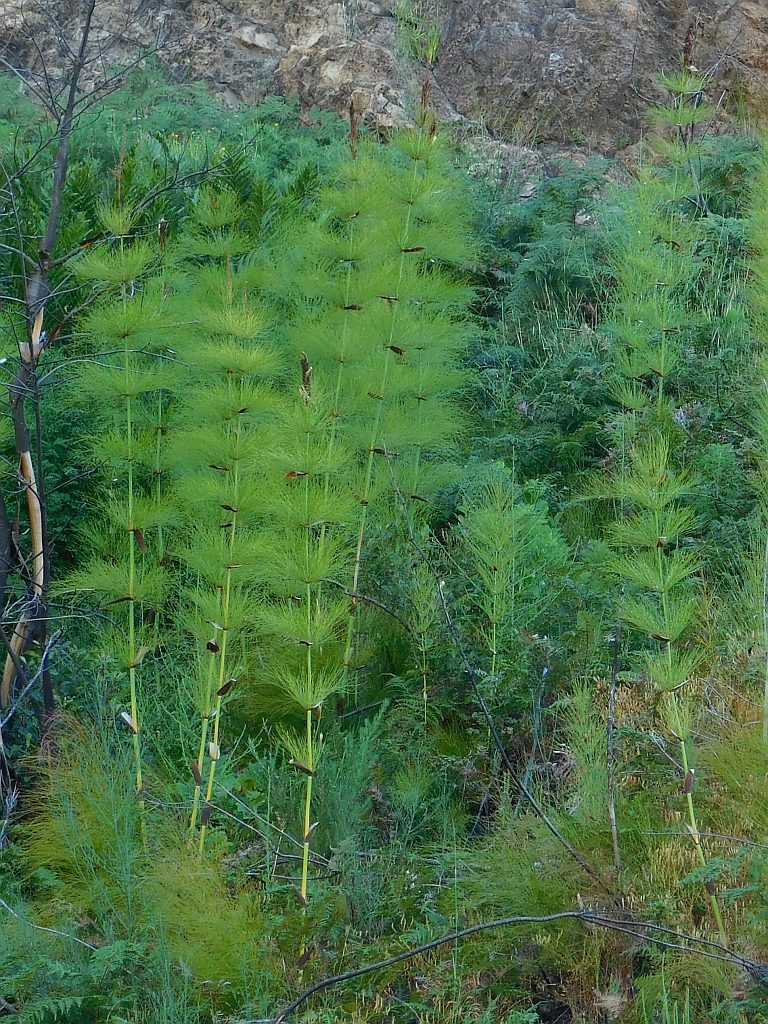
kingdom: Plantae
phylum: Tracheophyta
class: Liliopsida
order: Poales
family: Restionaceae
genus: Elegia
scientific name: Elegia capensis
